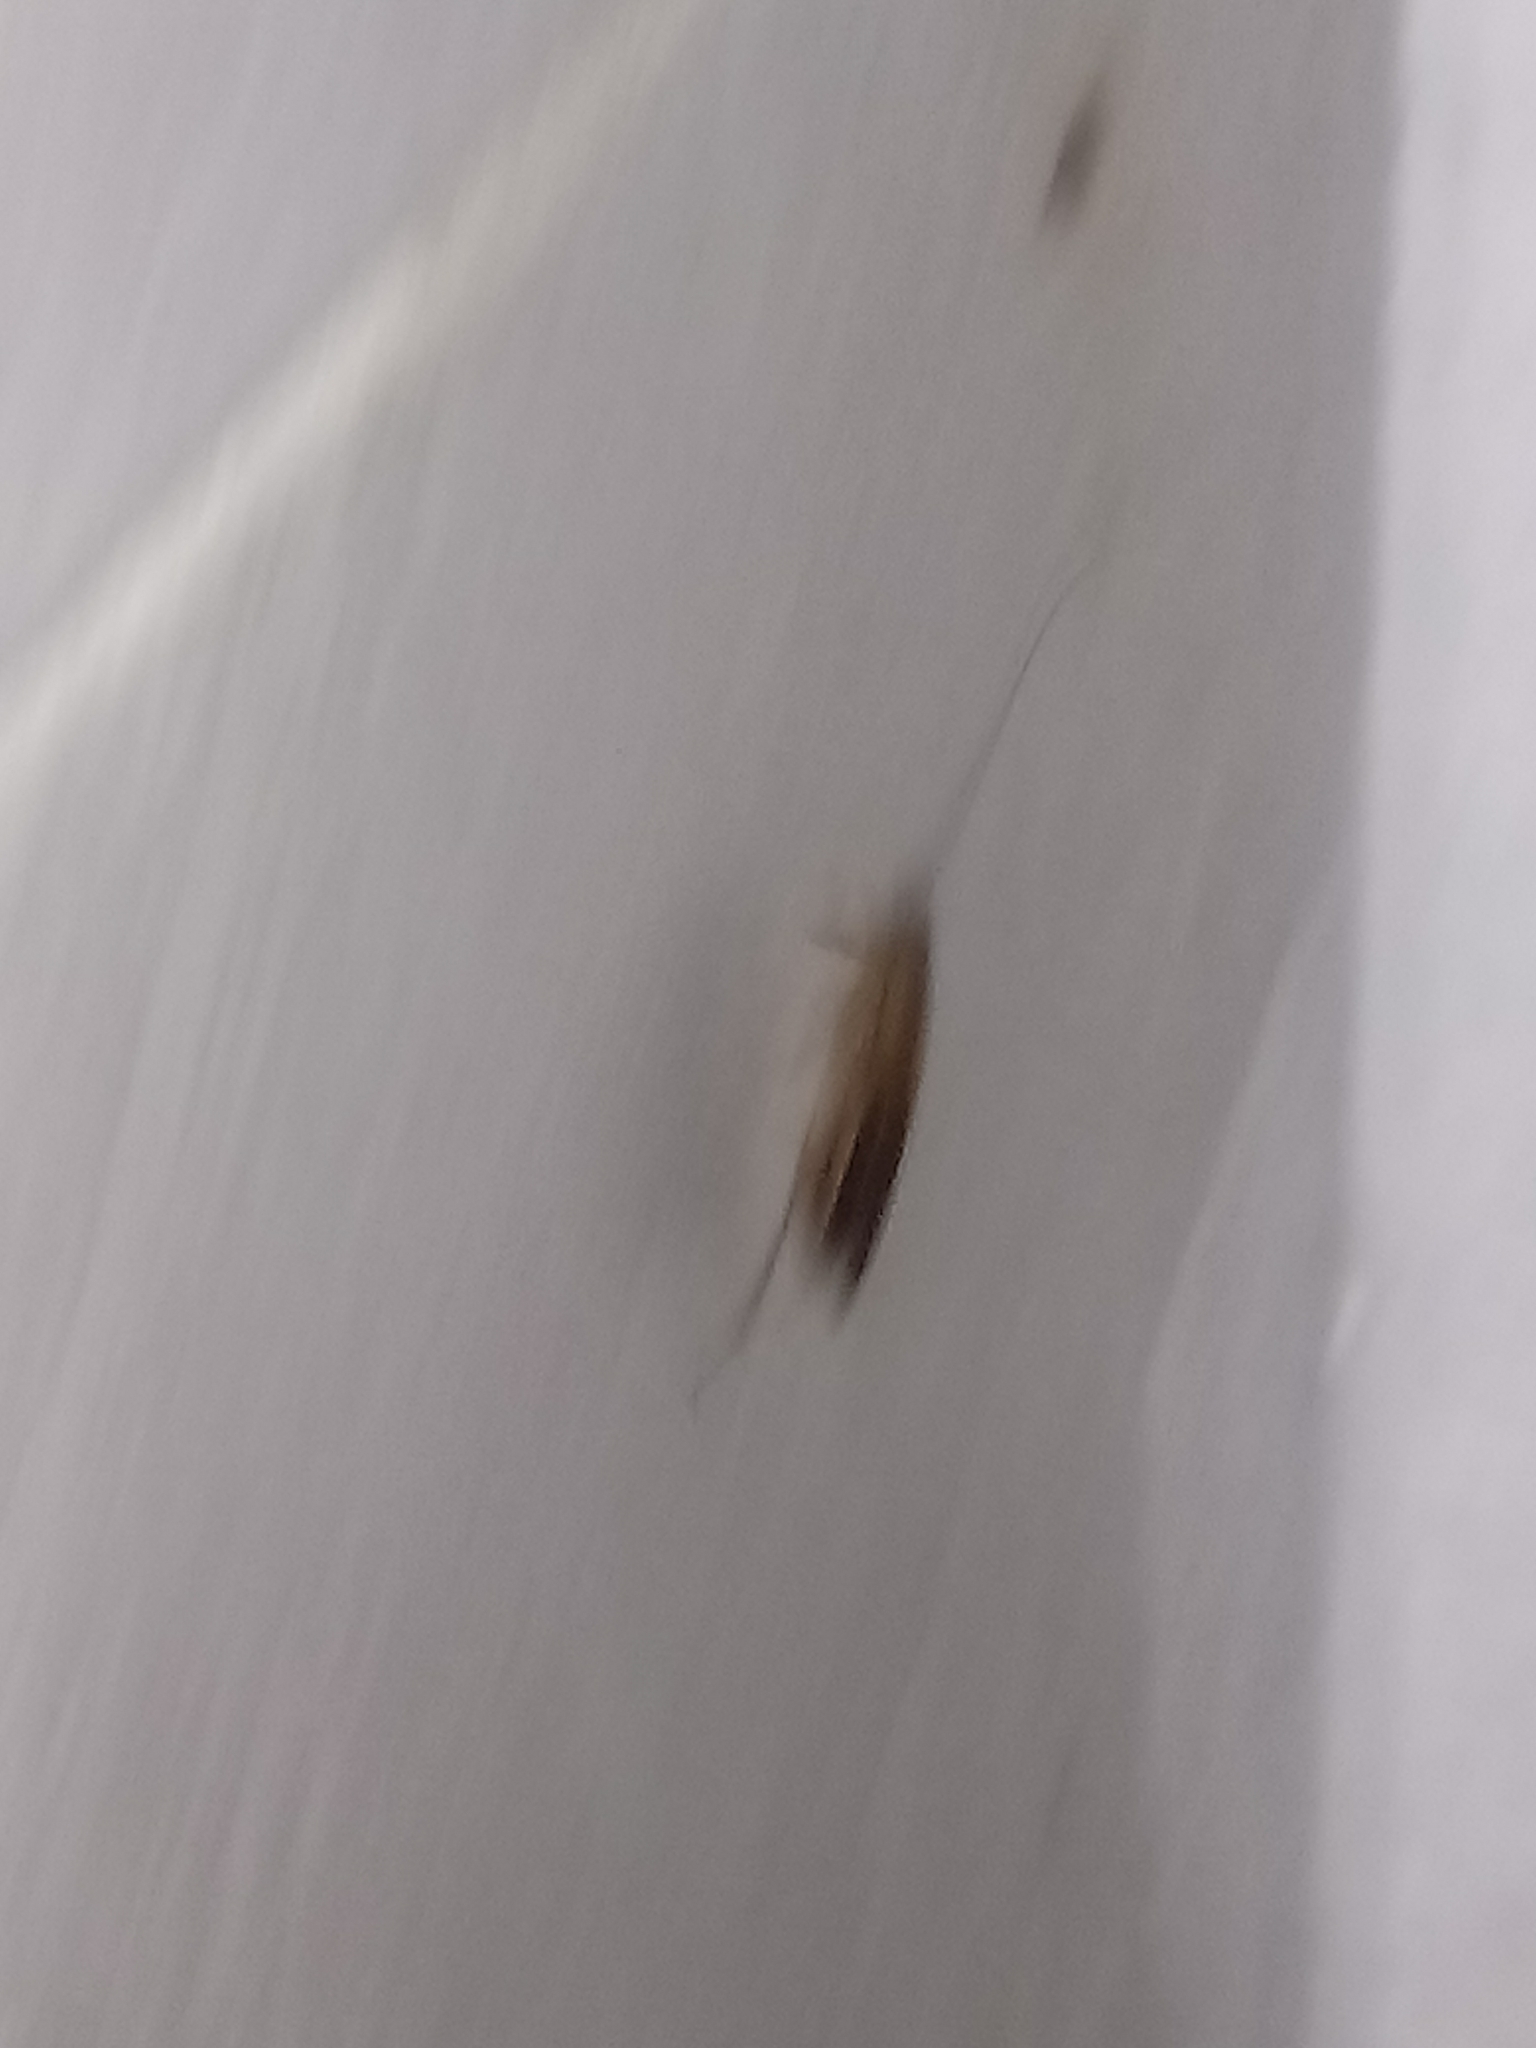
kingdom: Animalia
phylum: Arthropoda
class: Insecta
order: Blattodea
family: Ectobiidae
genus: Blattella
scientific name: Blattella germanica
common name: German cockroach
